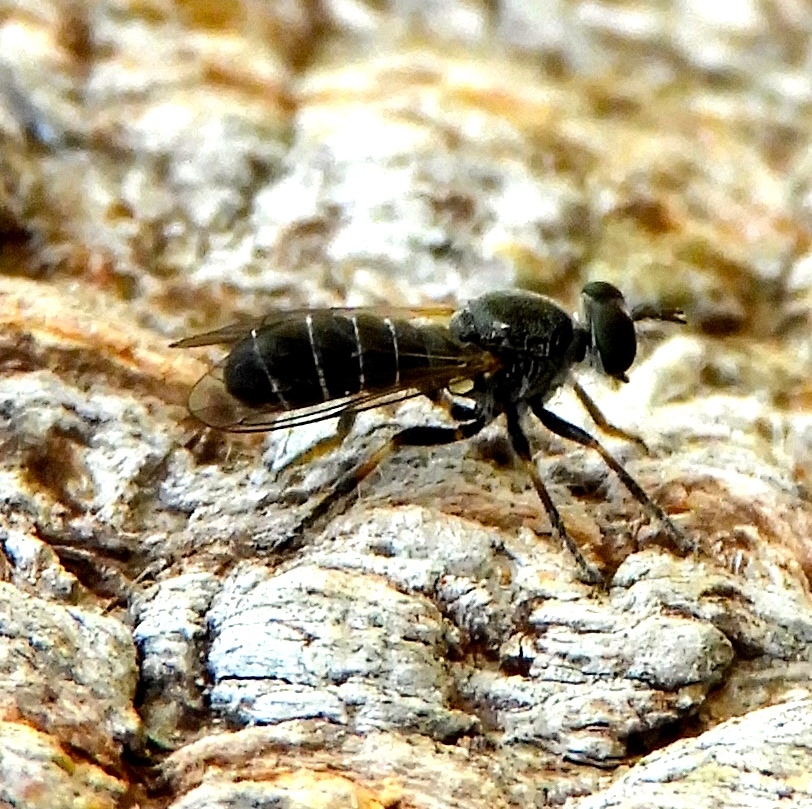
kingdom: Animalia
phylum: Arthropoda
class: Insecta
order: Diptera
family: Asilidae
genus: Atomosia
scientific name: Atomosia
